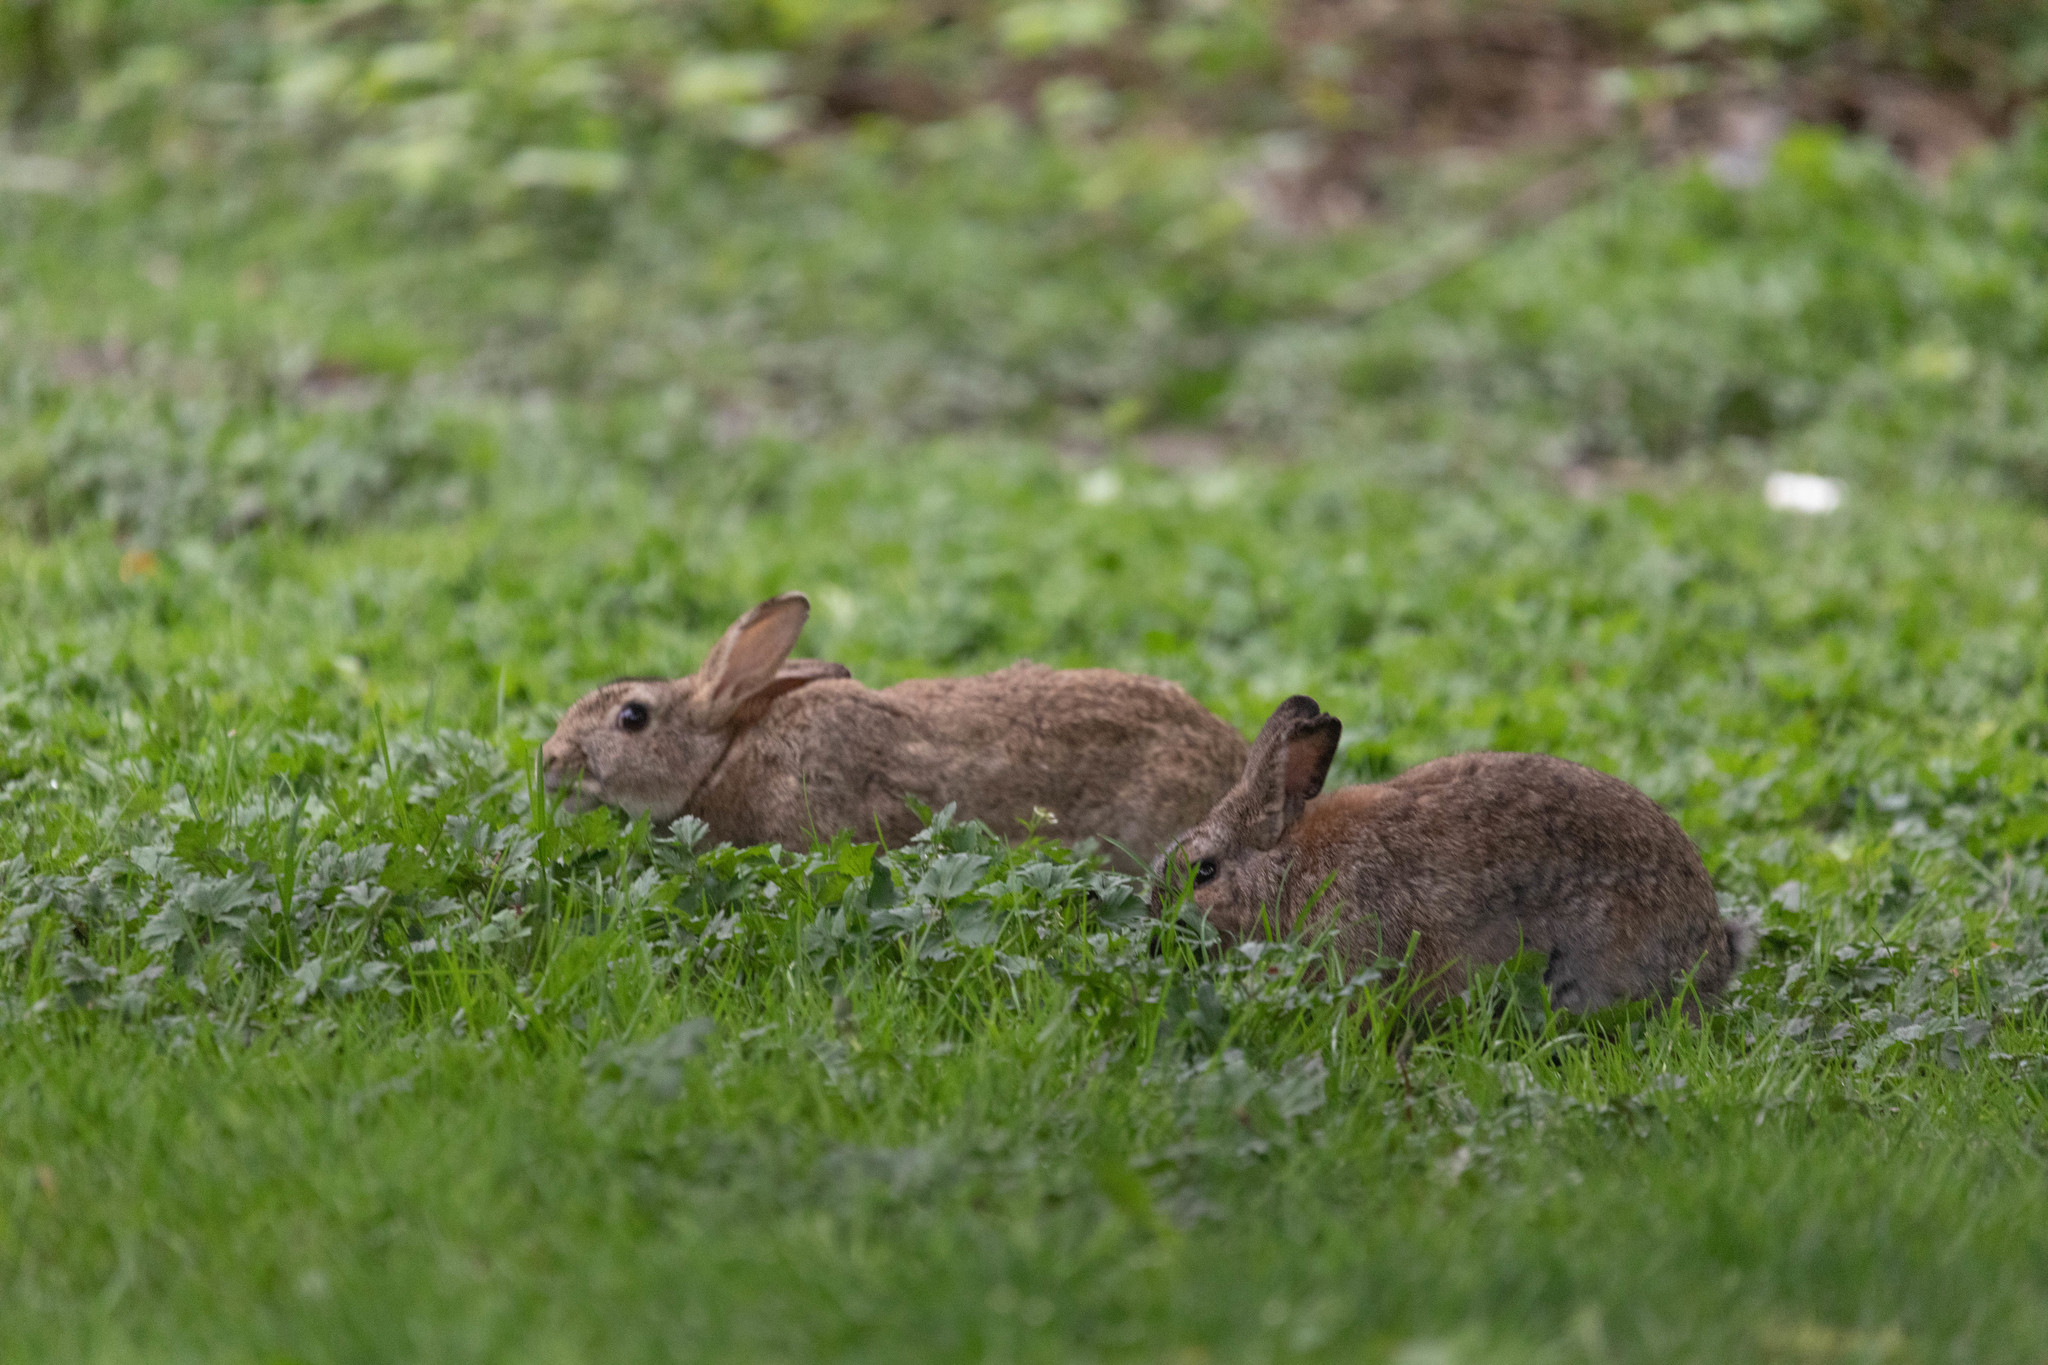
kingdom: Animalia
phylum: Chordata
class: Mammalia
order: Lagomorpha
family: Leporidae
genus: Oryctolagus
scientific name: Oryctolagus cuniculus
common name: European rabbit
